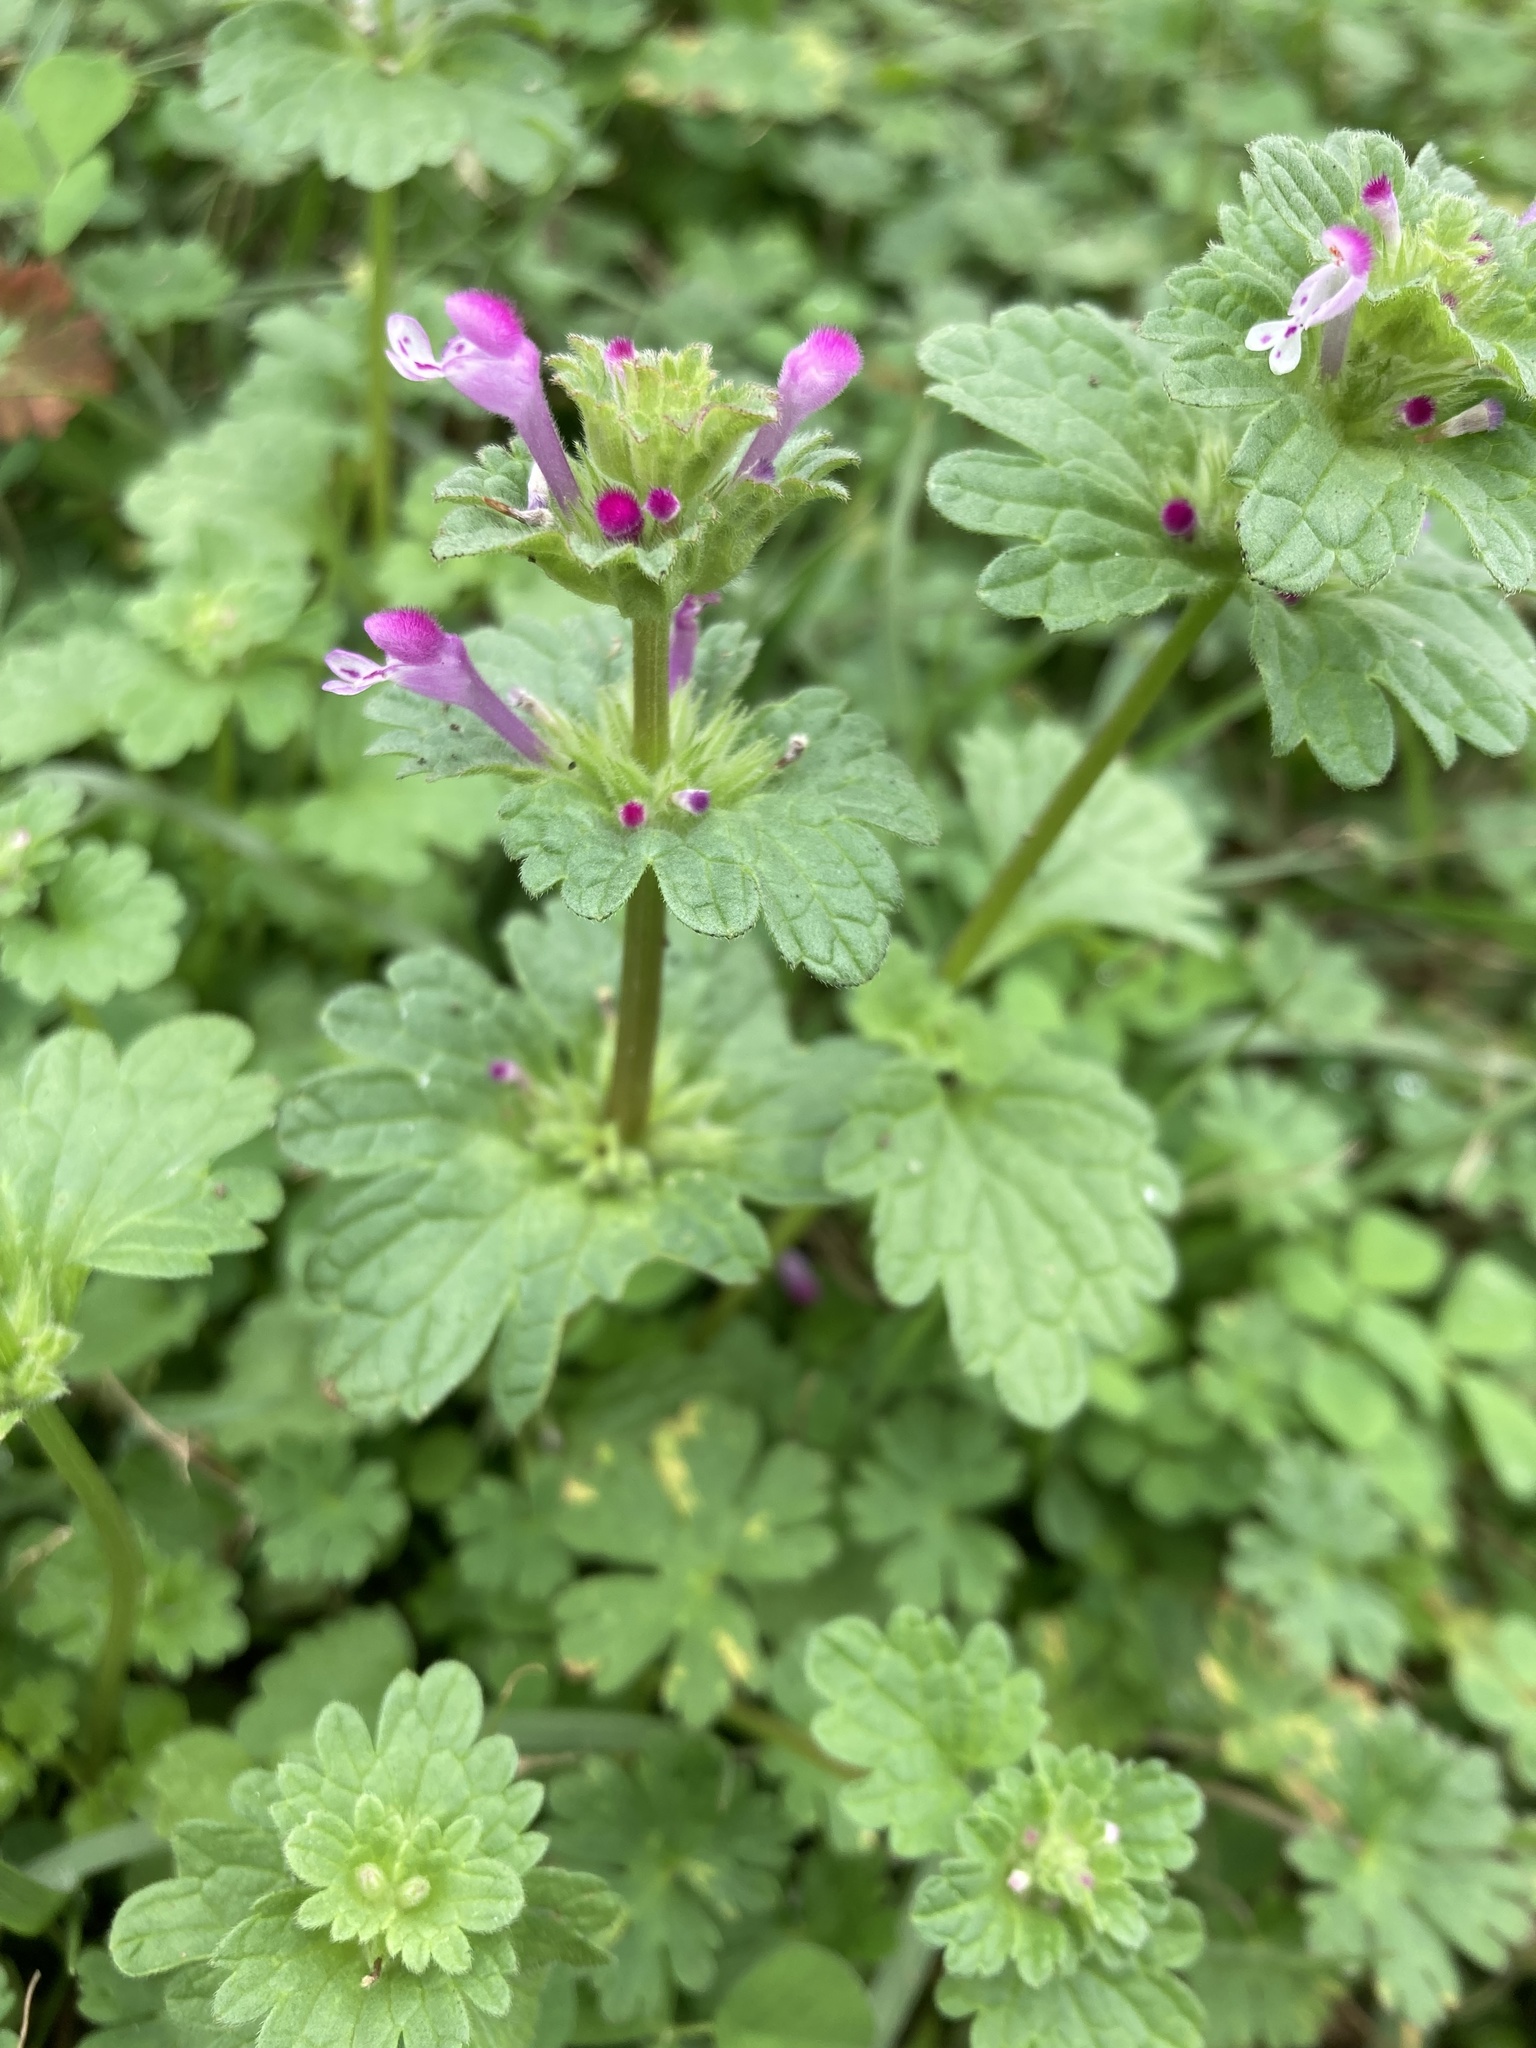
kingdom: Plantae
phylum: Tracheophyta
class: Magnoliopsida
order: Lamiales
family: Lamiaceae
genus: Lamium
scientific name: Lamium amplexicaule
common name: Henbit dead-nettle
